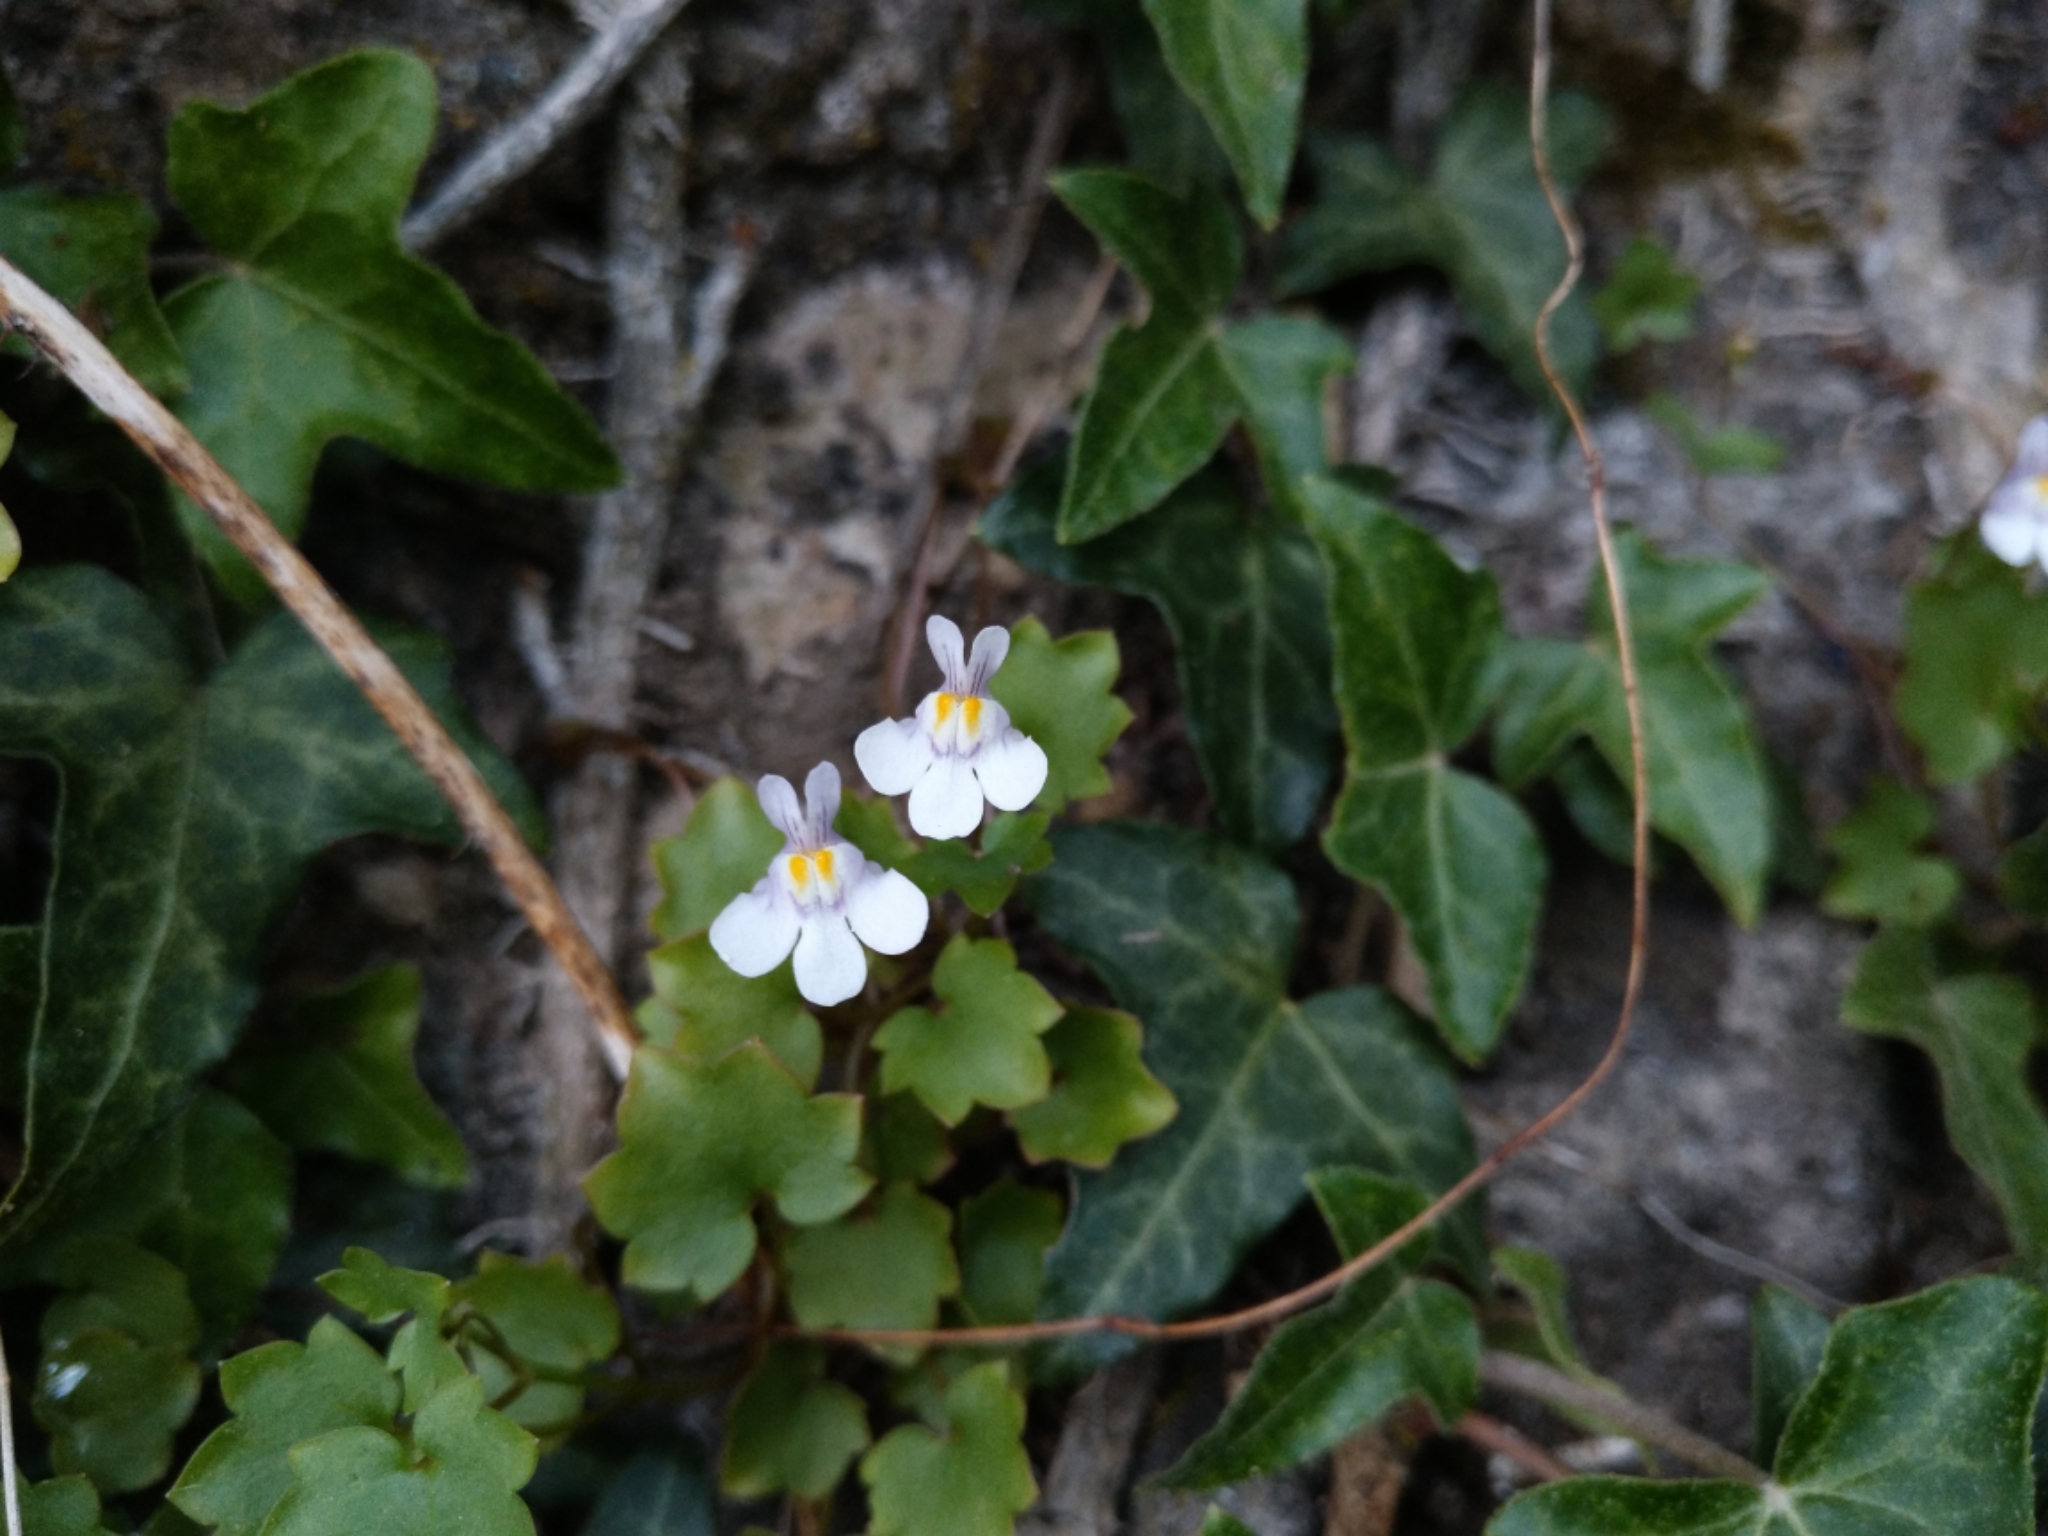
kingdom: Plantae
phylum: Tracheophyta
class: Magnoliopsida
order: Lamiales
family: Plantaginaceae
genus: Cymbalaria
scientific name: Cymbalaria muralis
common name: Ivy-leaved toadflax
